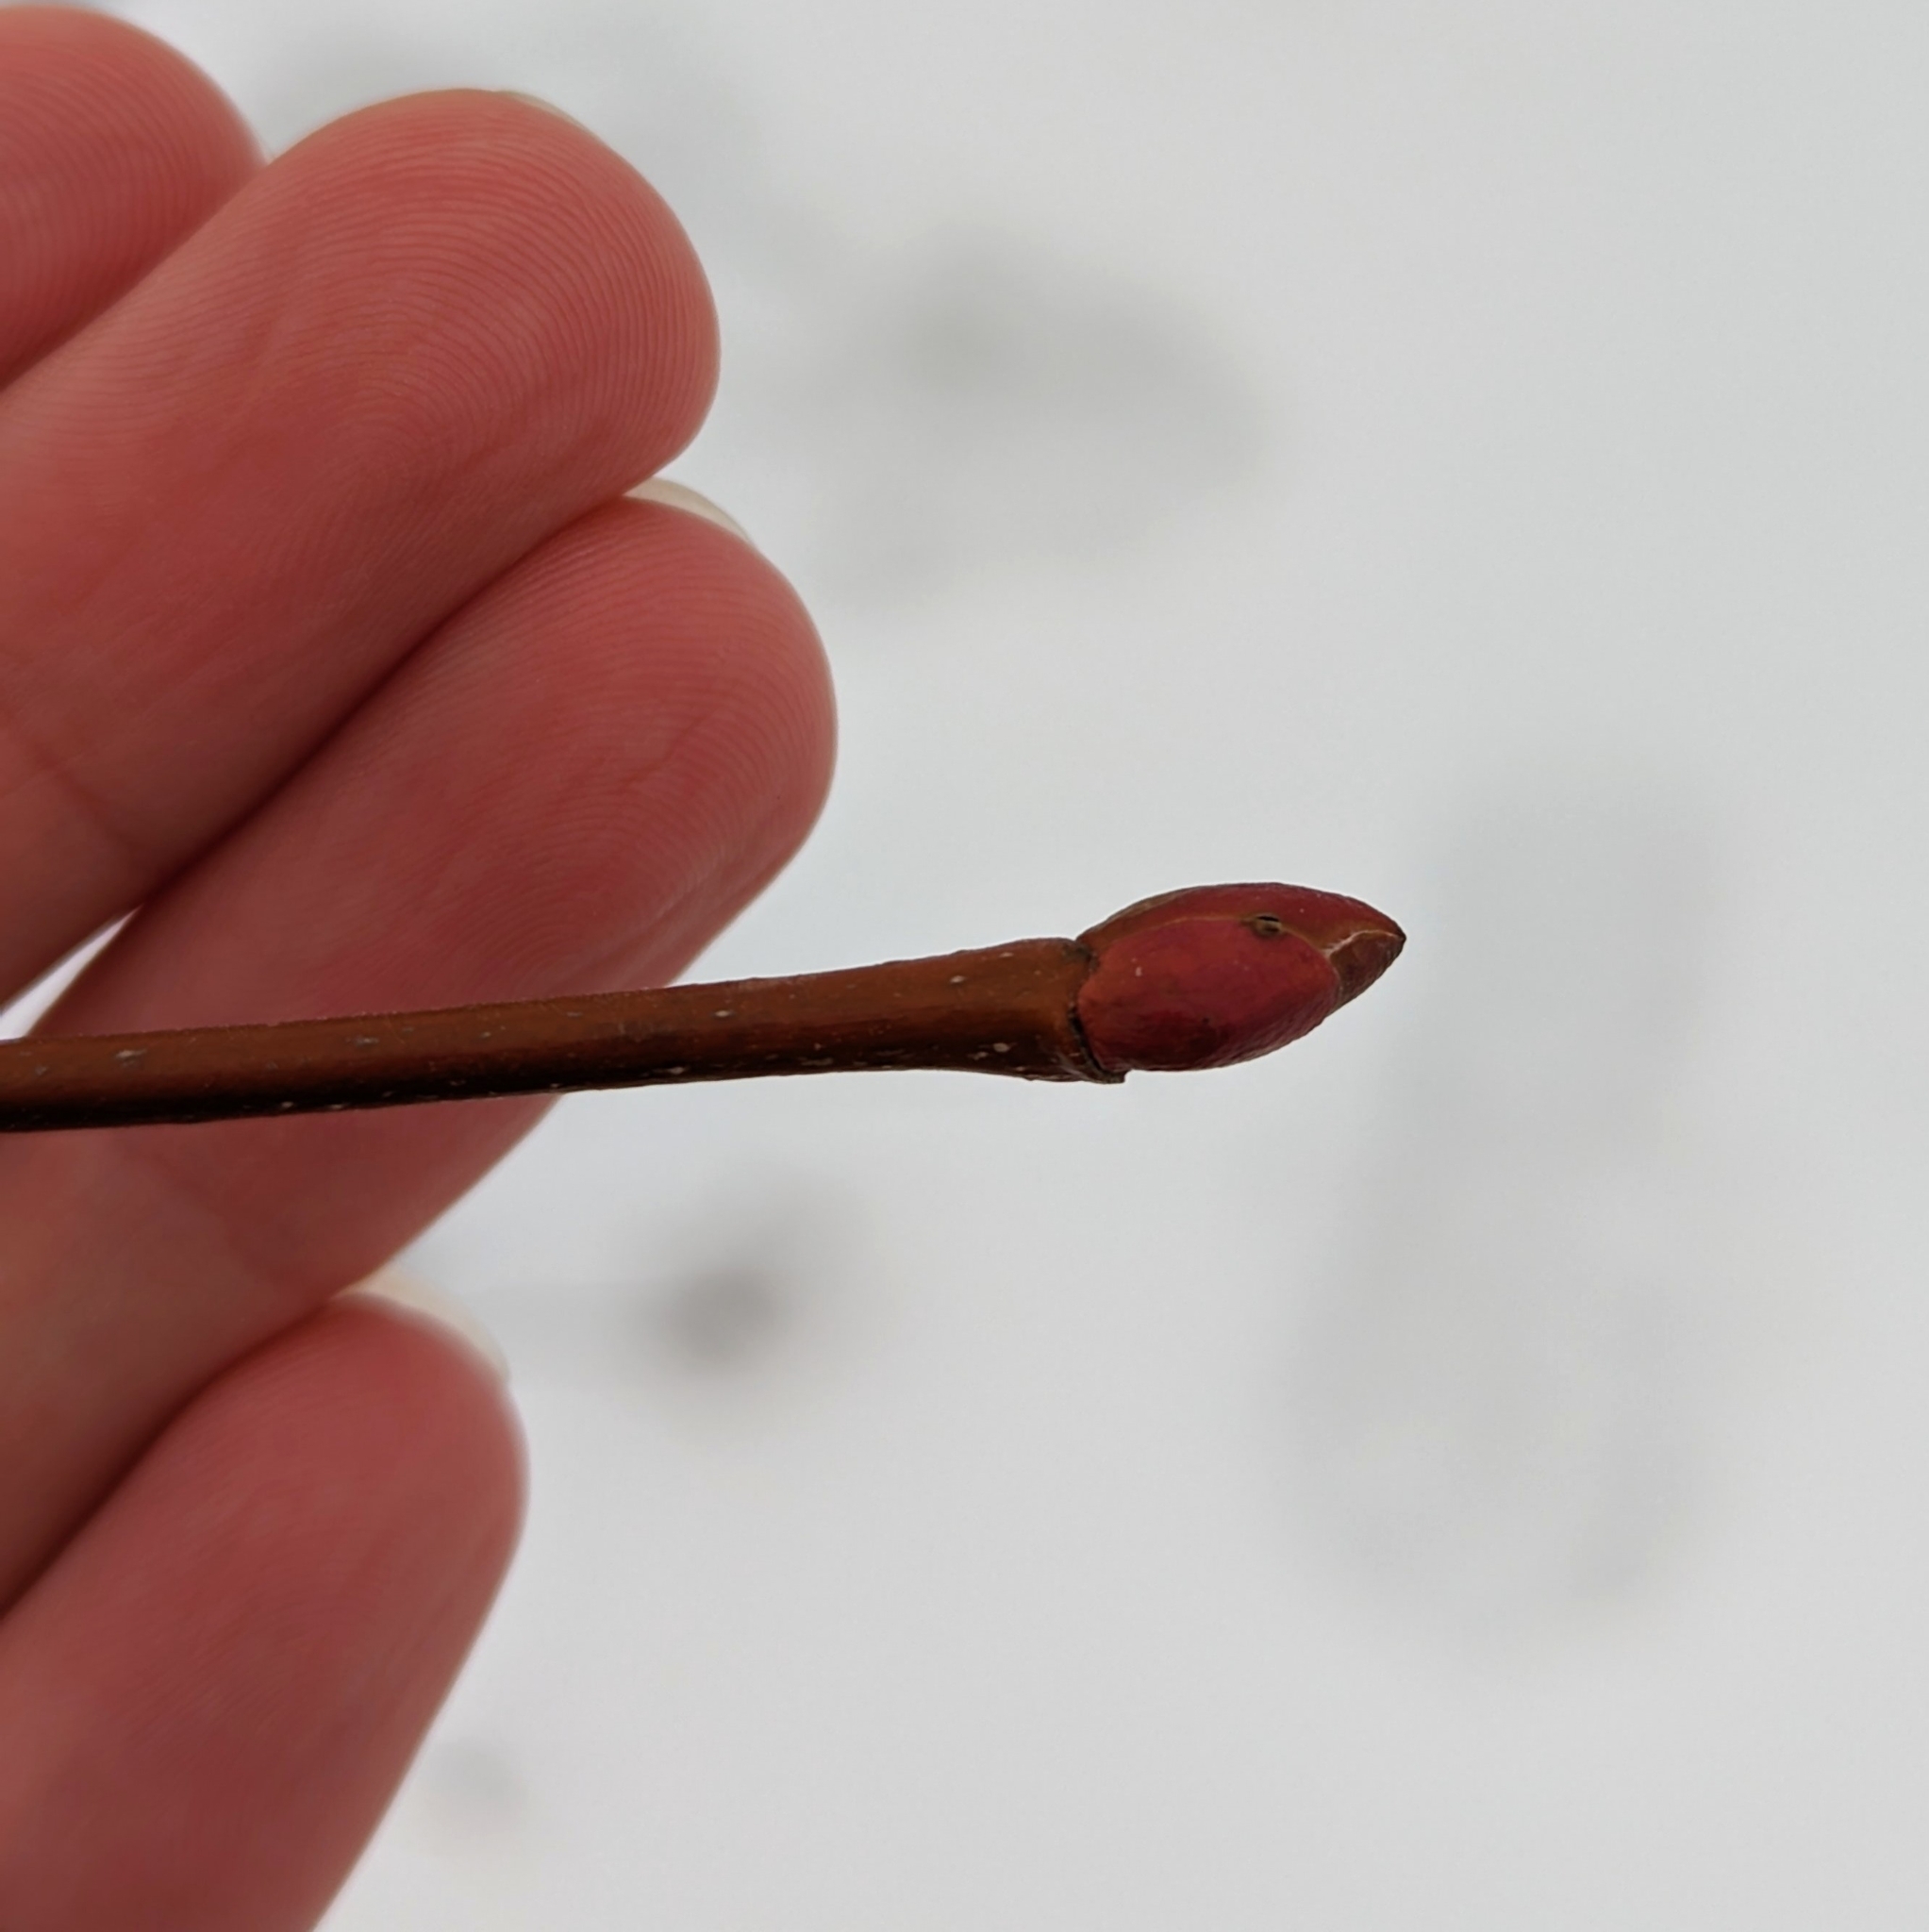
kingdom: Plantae
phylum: Tracheophyta
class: Magnoliopsida
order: Malvales
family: Malvaceae
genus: Tilia
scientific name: Tilia americana
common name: Basswood
